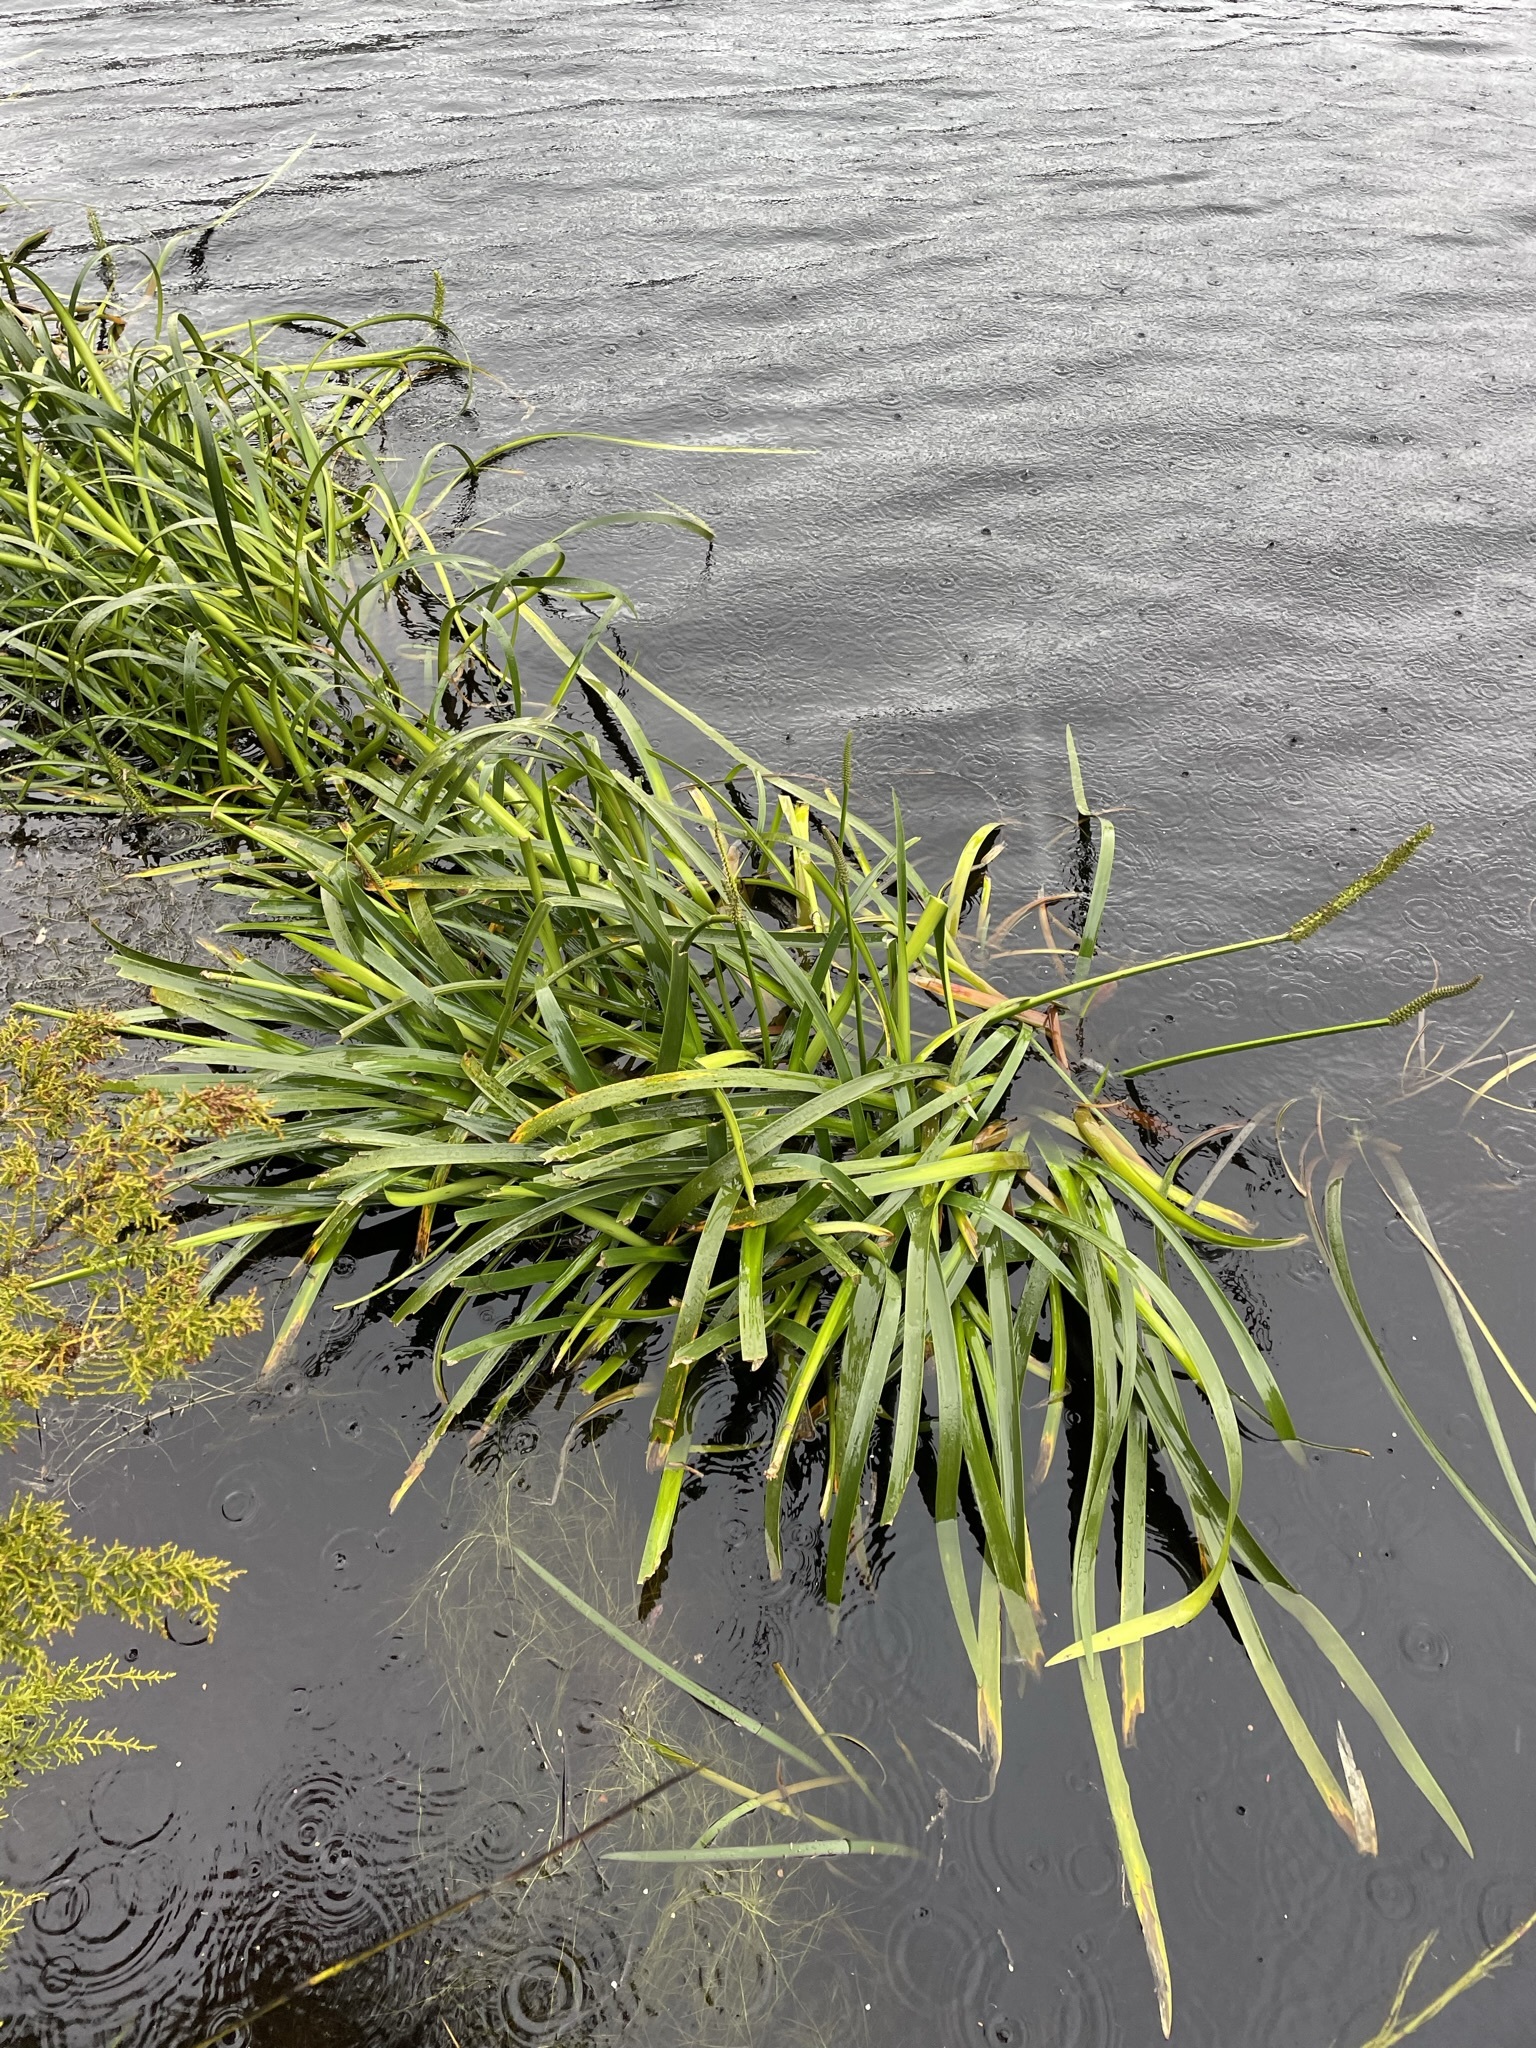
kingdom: Plantae
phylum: Tracheophyta
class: Liliopsida
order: Alismatales
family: Juncaginaceae
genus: Cycnogeton
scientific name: Cycnogeton procerum
